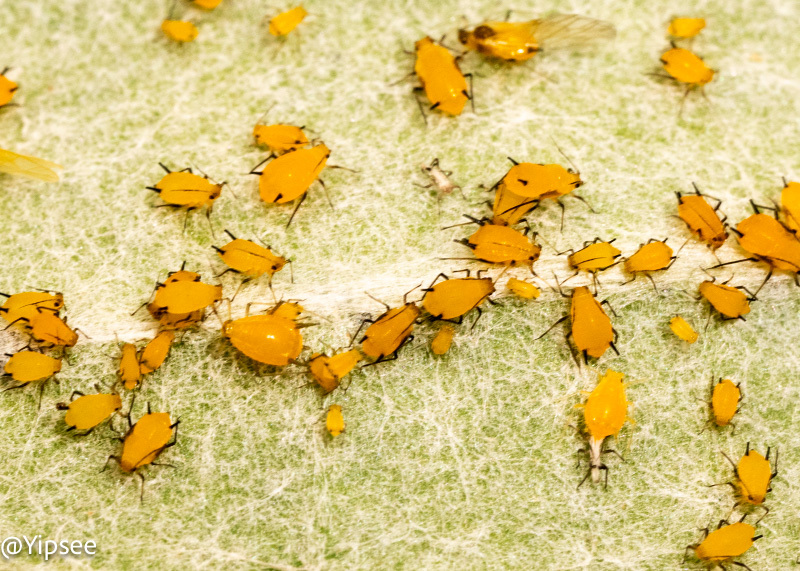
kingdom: Animalia
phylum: Arthropoda
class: Insecta
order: Hemiptera
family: Aphididae
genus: Aphis
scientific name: Aphis nerii
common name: Oleander aphid
